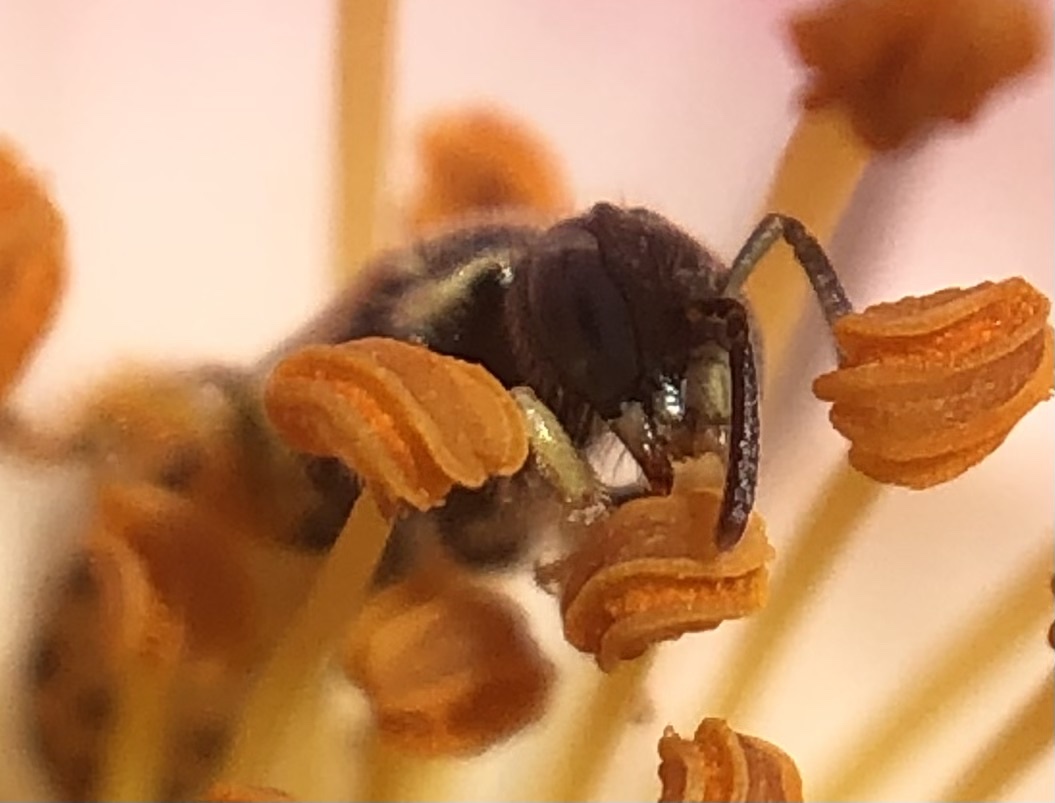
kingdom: Animalia
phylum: Arthropoda
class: Insecta
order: Hymenoptera
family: Halictidae
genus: Nomioides
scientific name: Nomioides facilis
